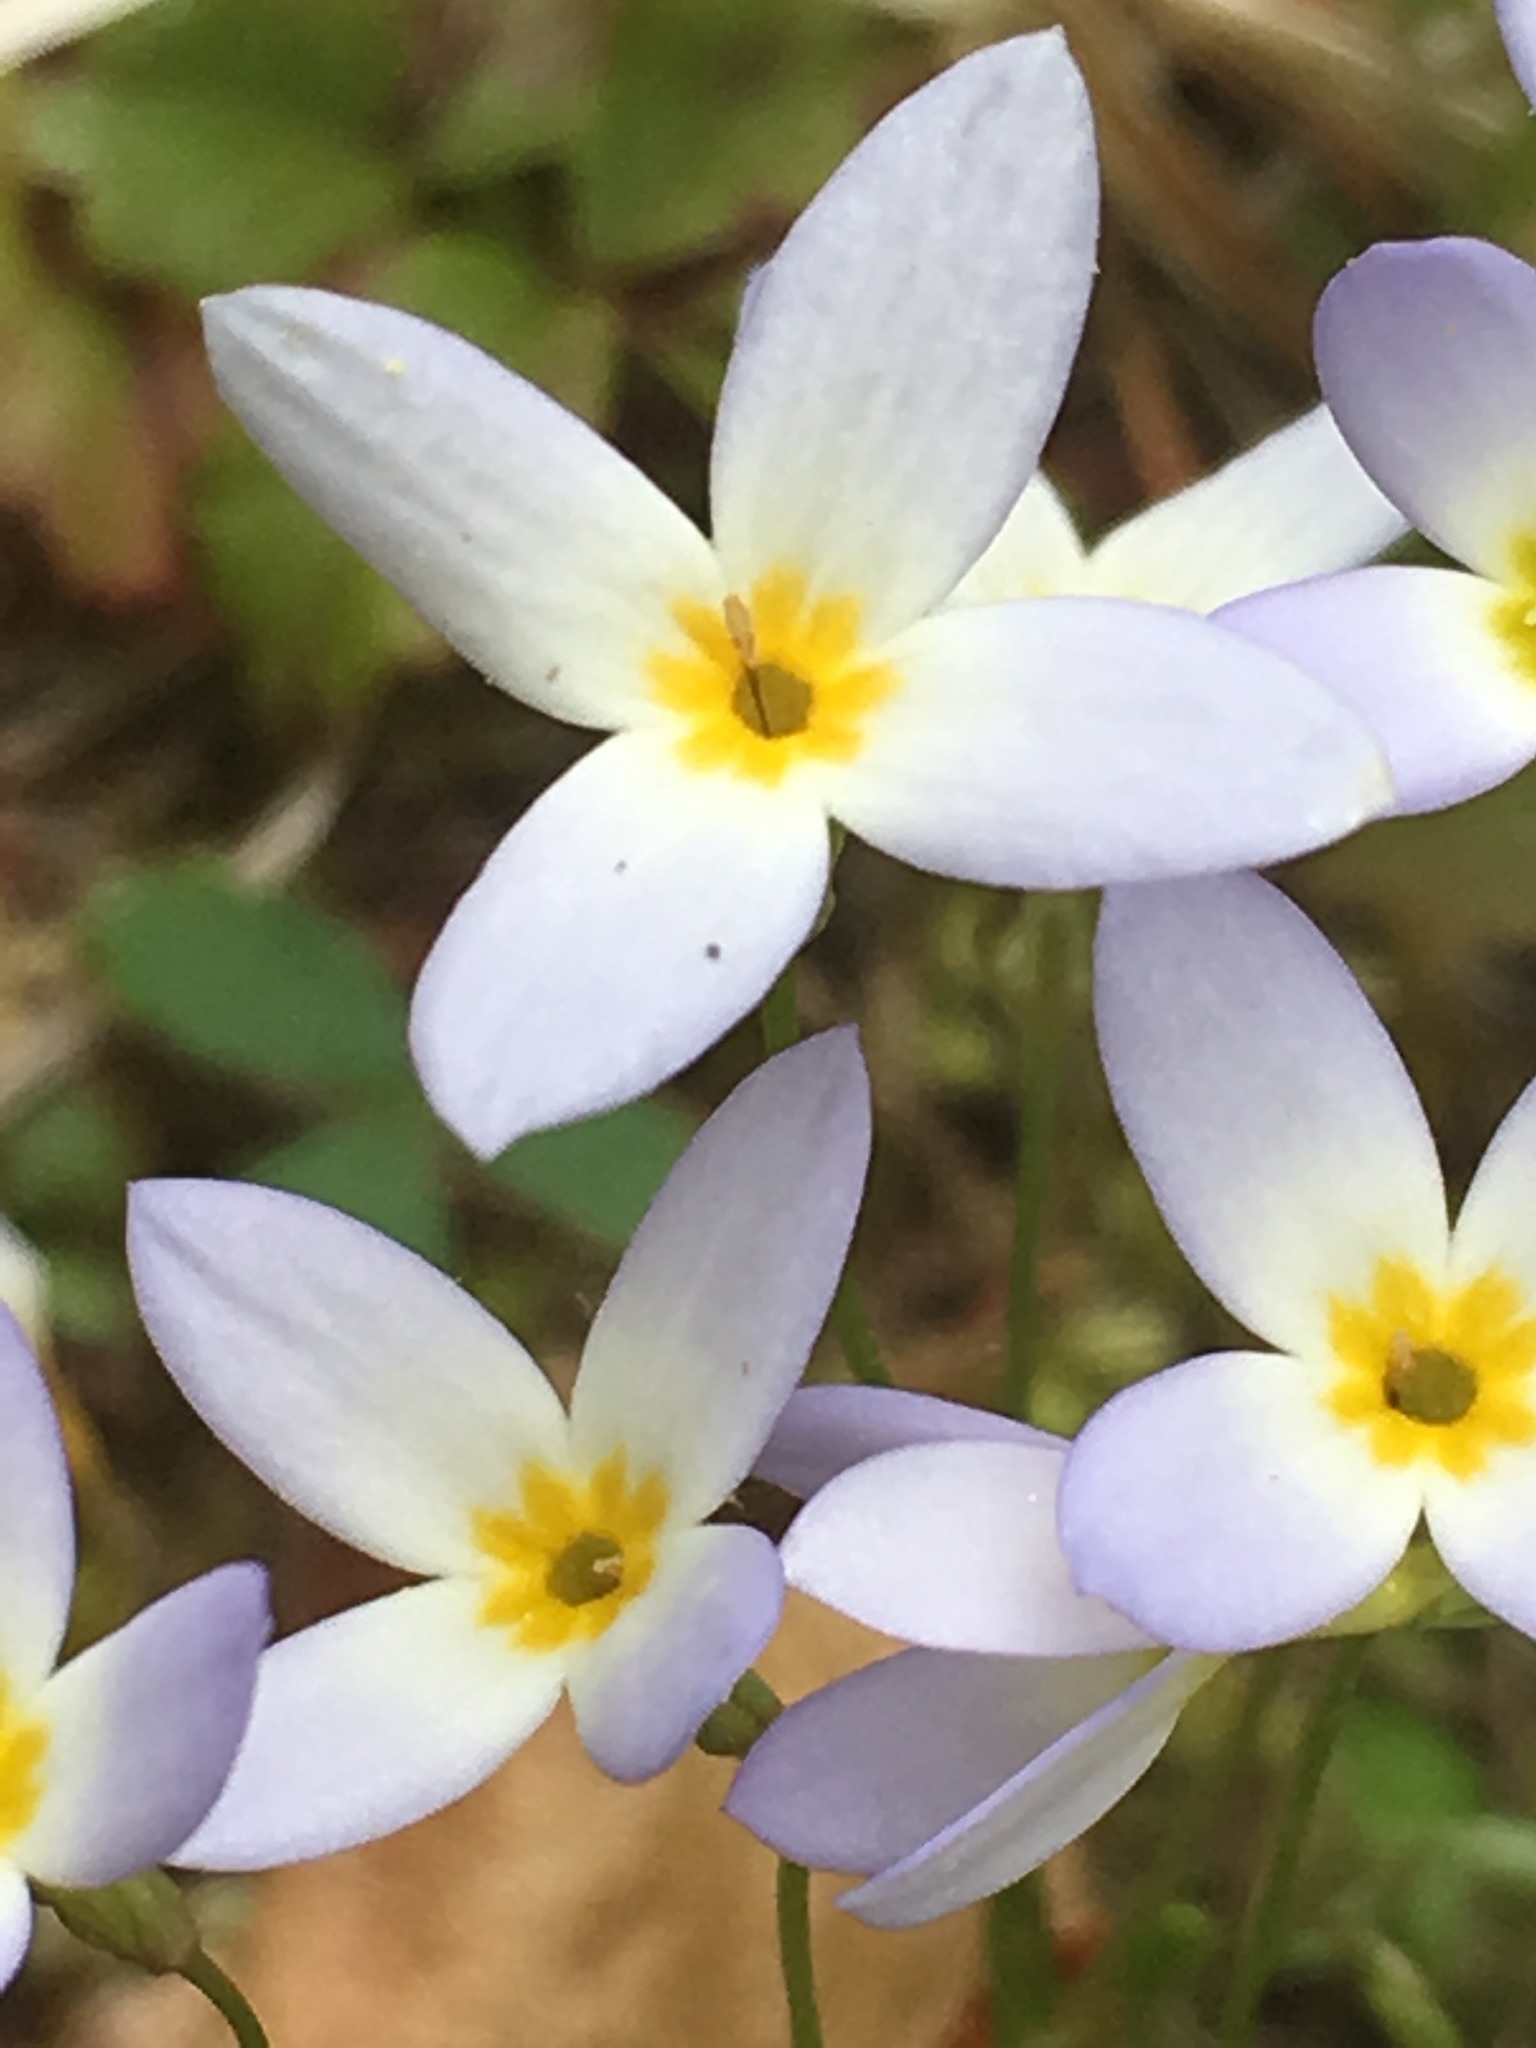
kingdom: Plantae
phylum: Tracheophyta
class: Magnoliopsida
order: Gentianales
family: Rubiaceae
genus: Houstonia
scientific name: Houstonia caerulea
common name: Bluets
